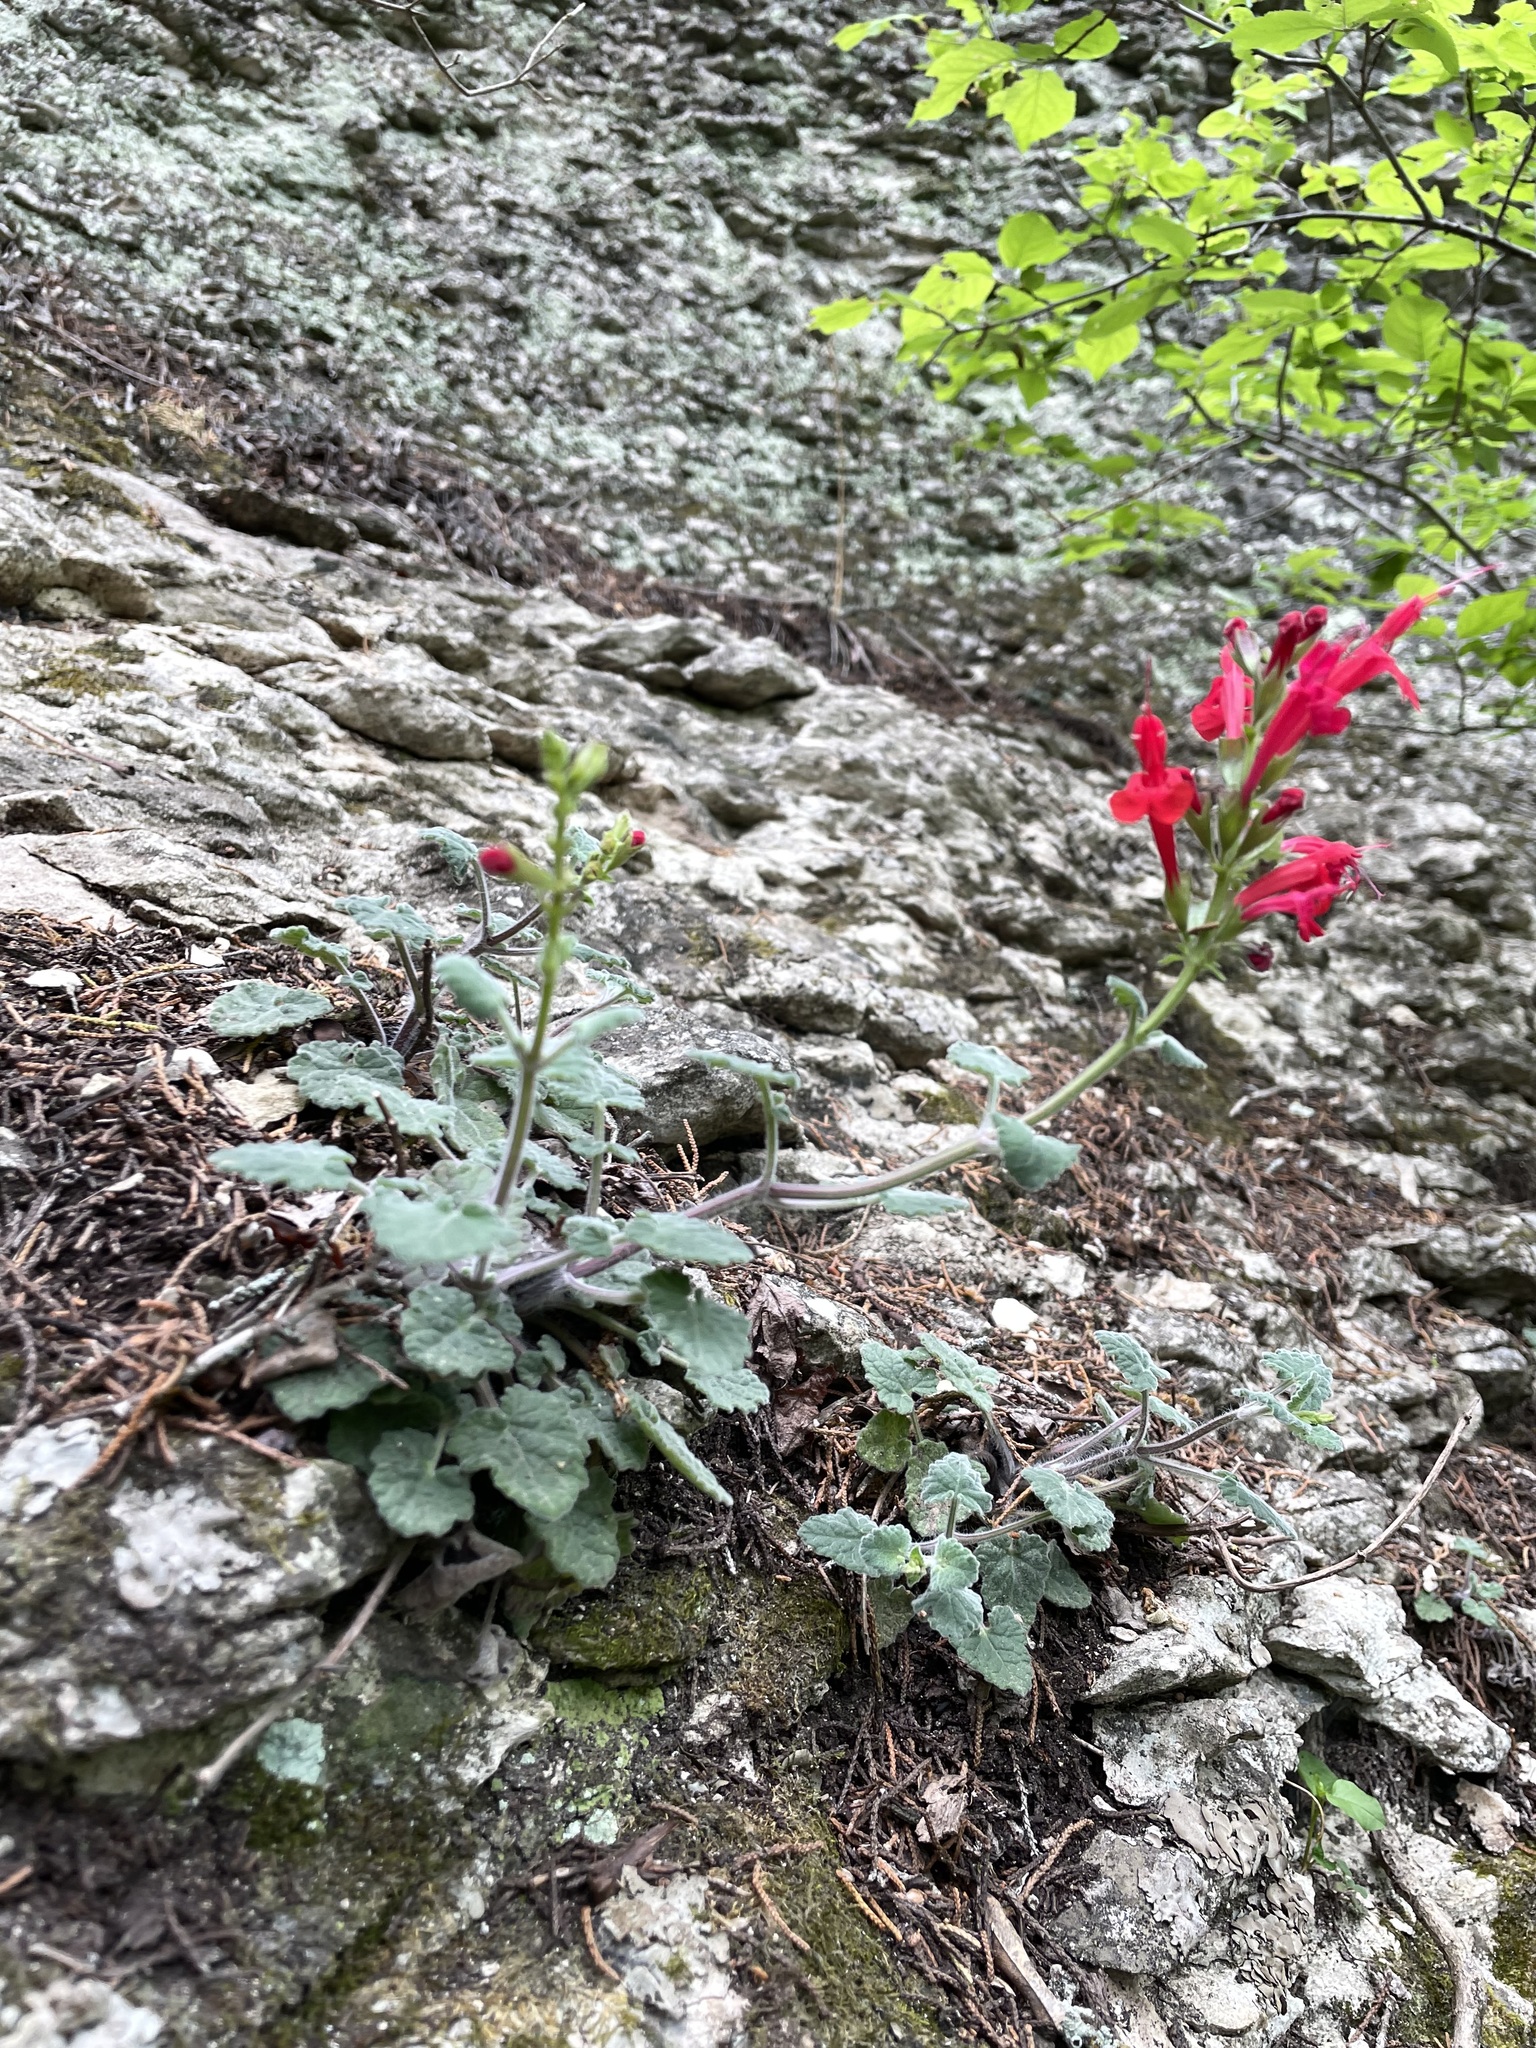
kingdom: Plantae
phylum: Tracheophyta
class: Magnoliopsida
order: Lamiales
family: Lamiaceae
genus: Salvia
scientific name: Salvia roemeriana
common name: Cedar sage
